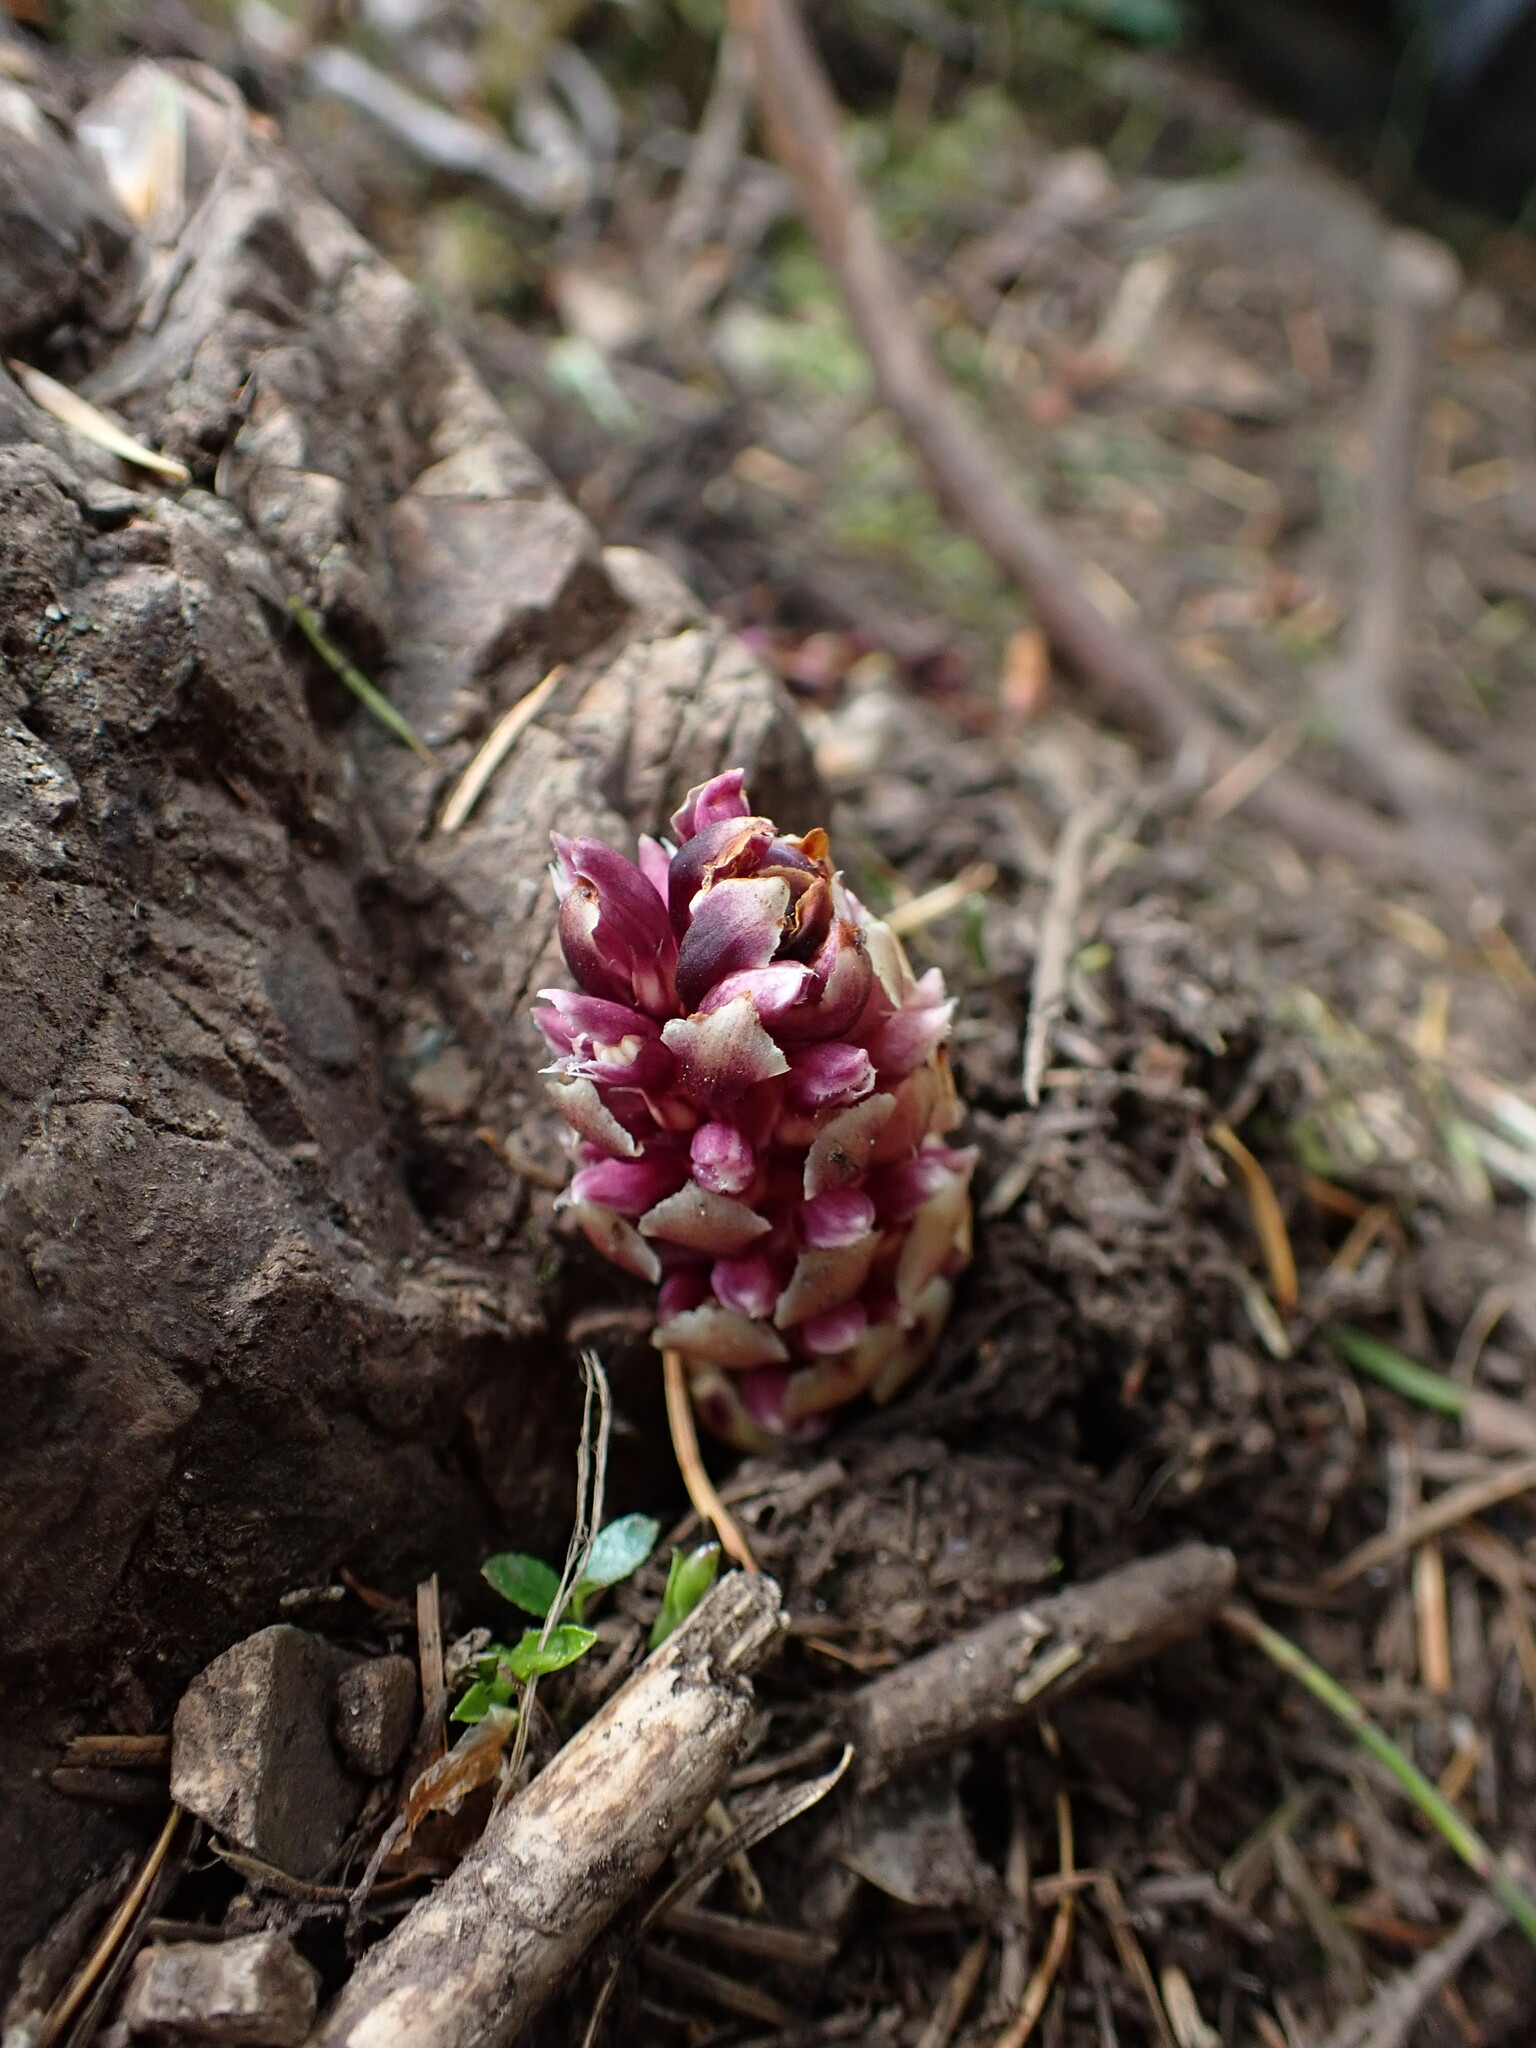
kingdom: Plantae
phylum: Tracheophyta
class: Magnoliopsida
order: Lamiales
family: Orobanchaceae
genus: Kopsiopsis
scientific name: Kopsiopsis hookeri
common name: Hooker's groundcone
